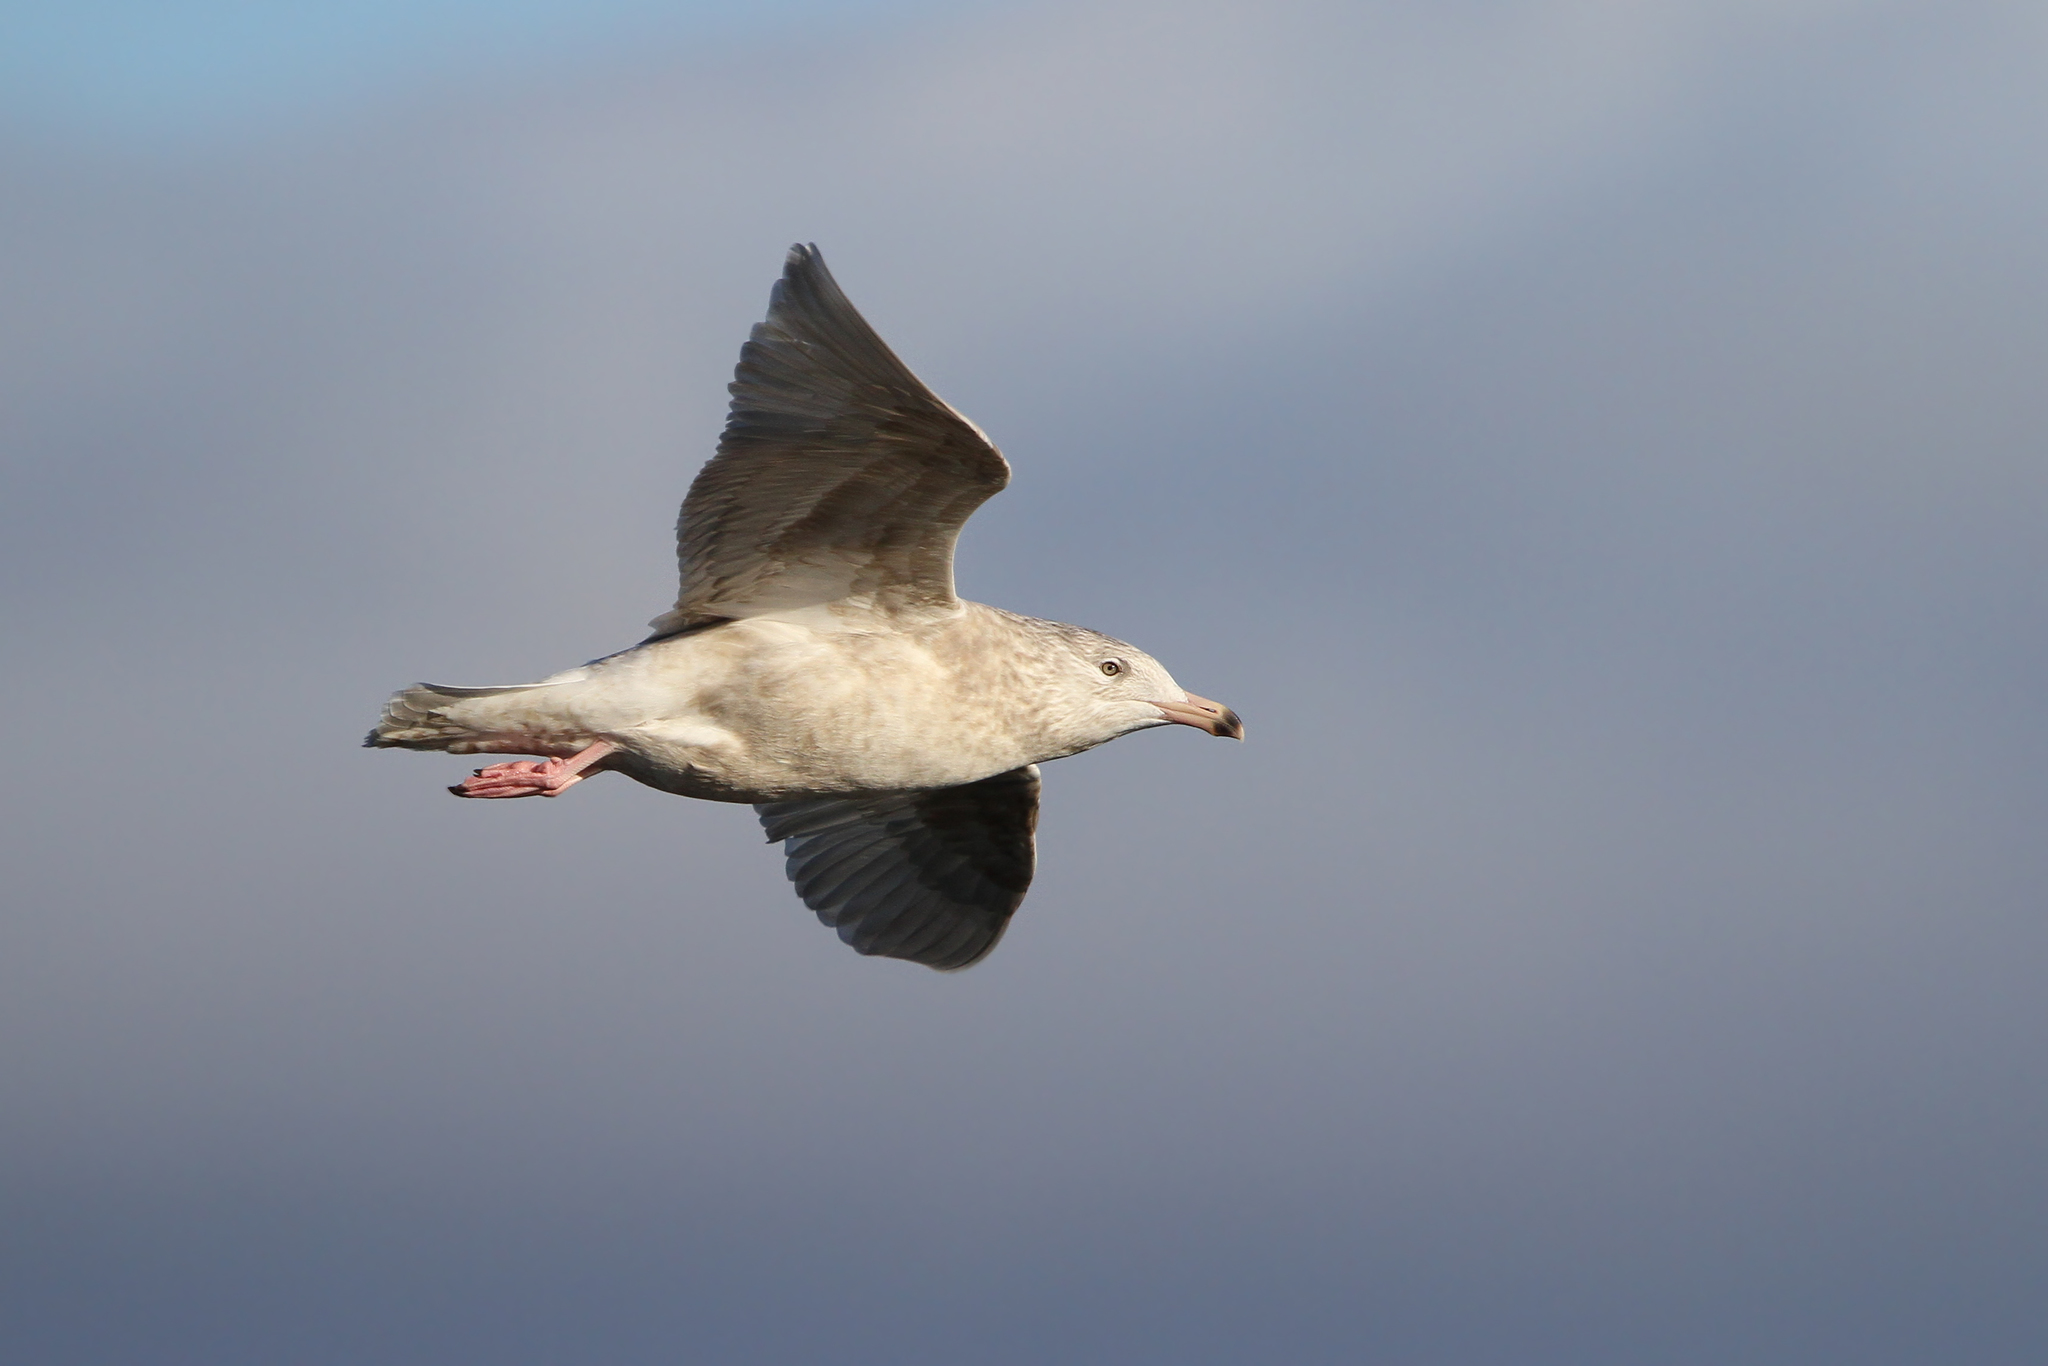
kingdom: Animalia
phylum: Chordata
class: Aves
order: Charadriiformes
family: Laridae
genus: Larus
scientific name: Larus hyperboreus
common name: Glaucous gull
